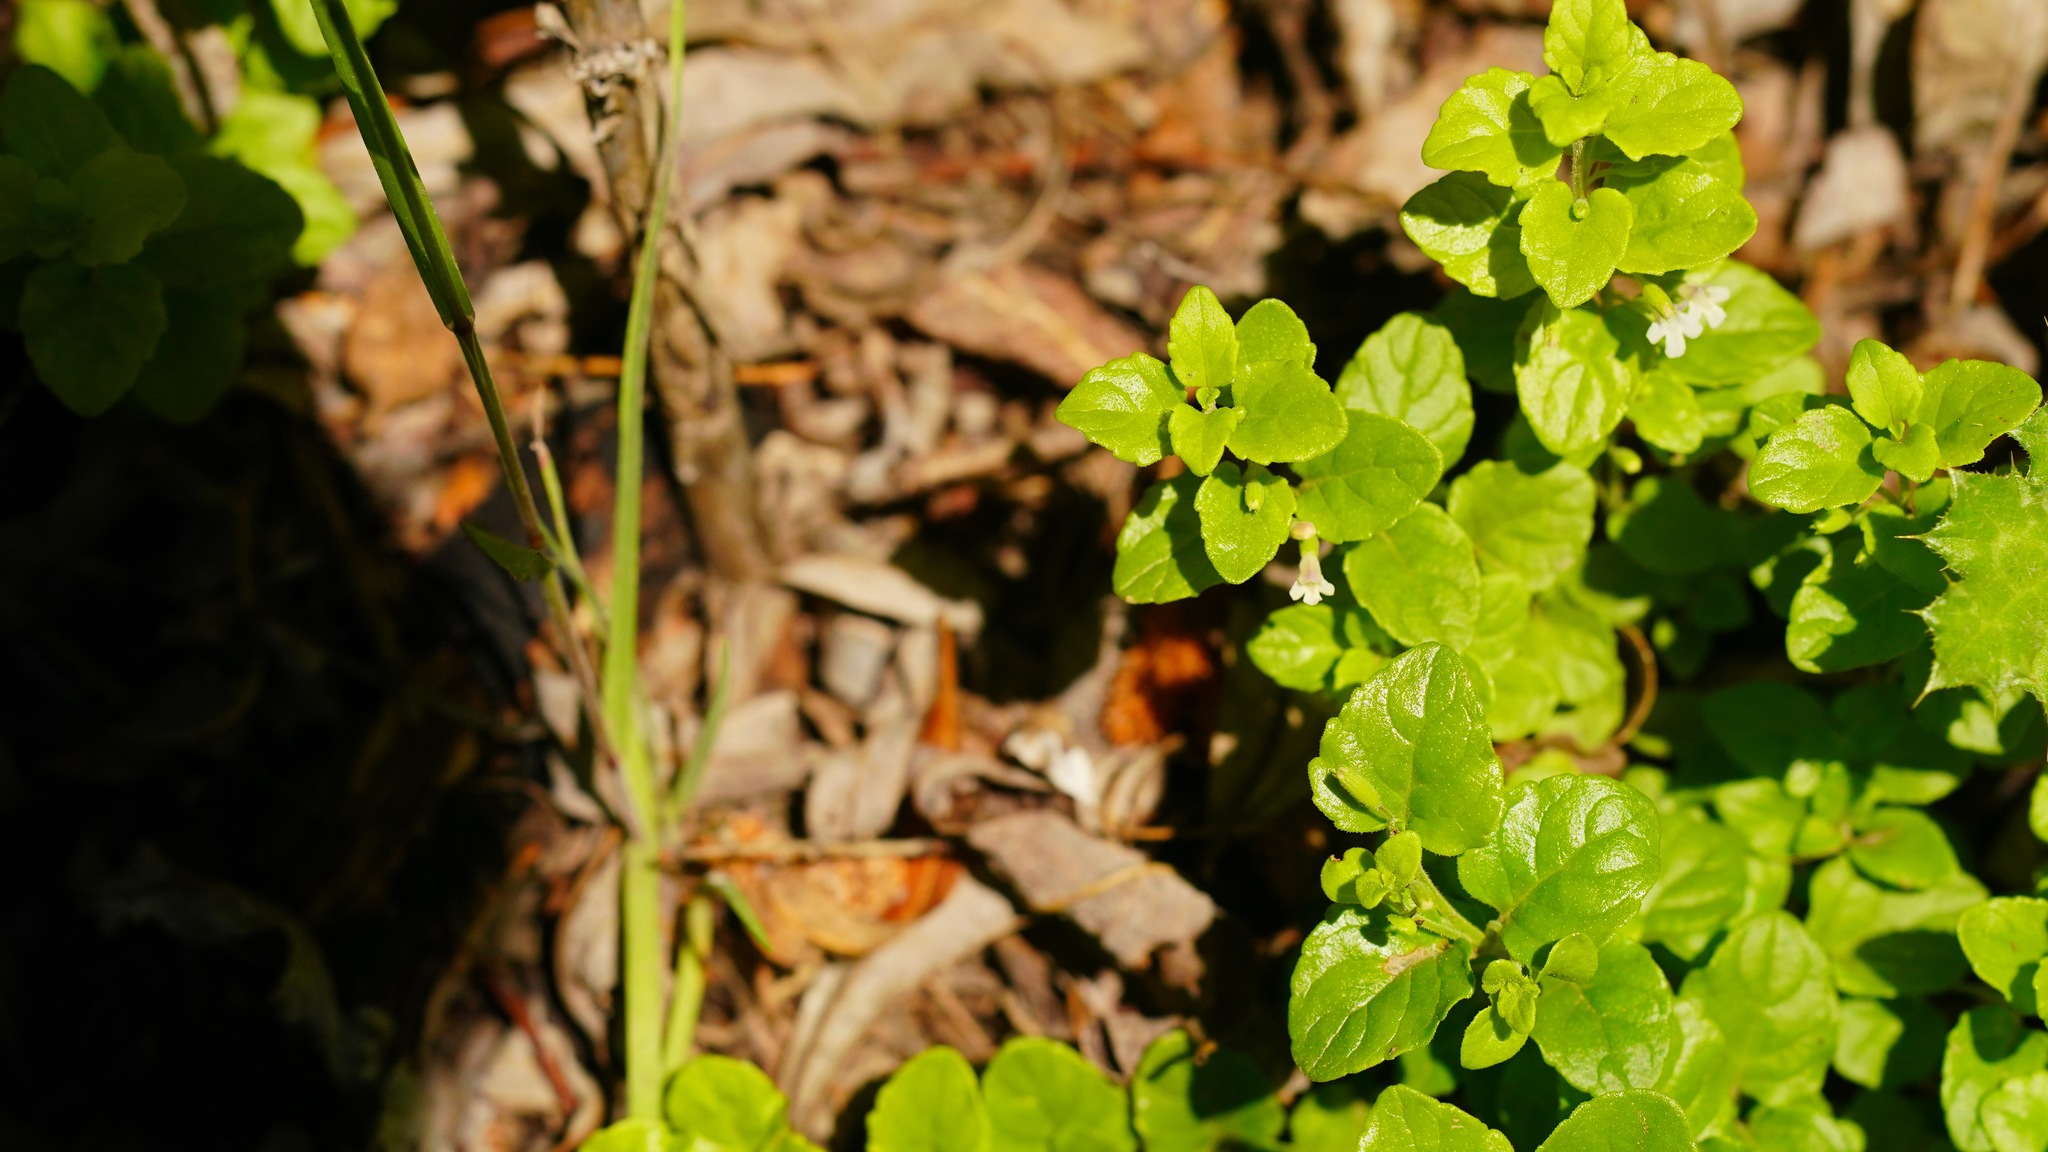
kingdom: Plantae
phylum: Tracheophyta
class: Magnoliopsida
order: Lamiales
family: Lamiaceae
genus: Micromeria
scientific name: Micromeria douglasii
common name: Yerba buena
